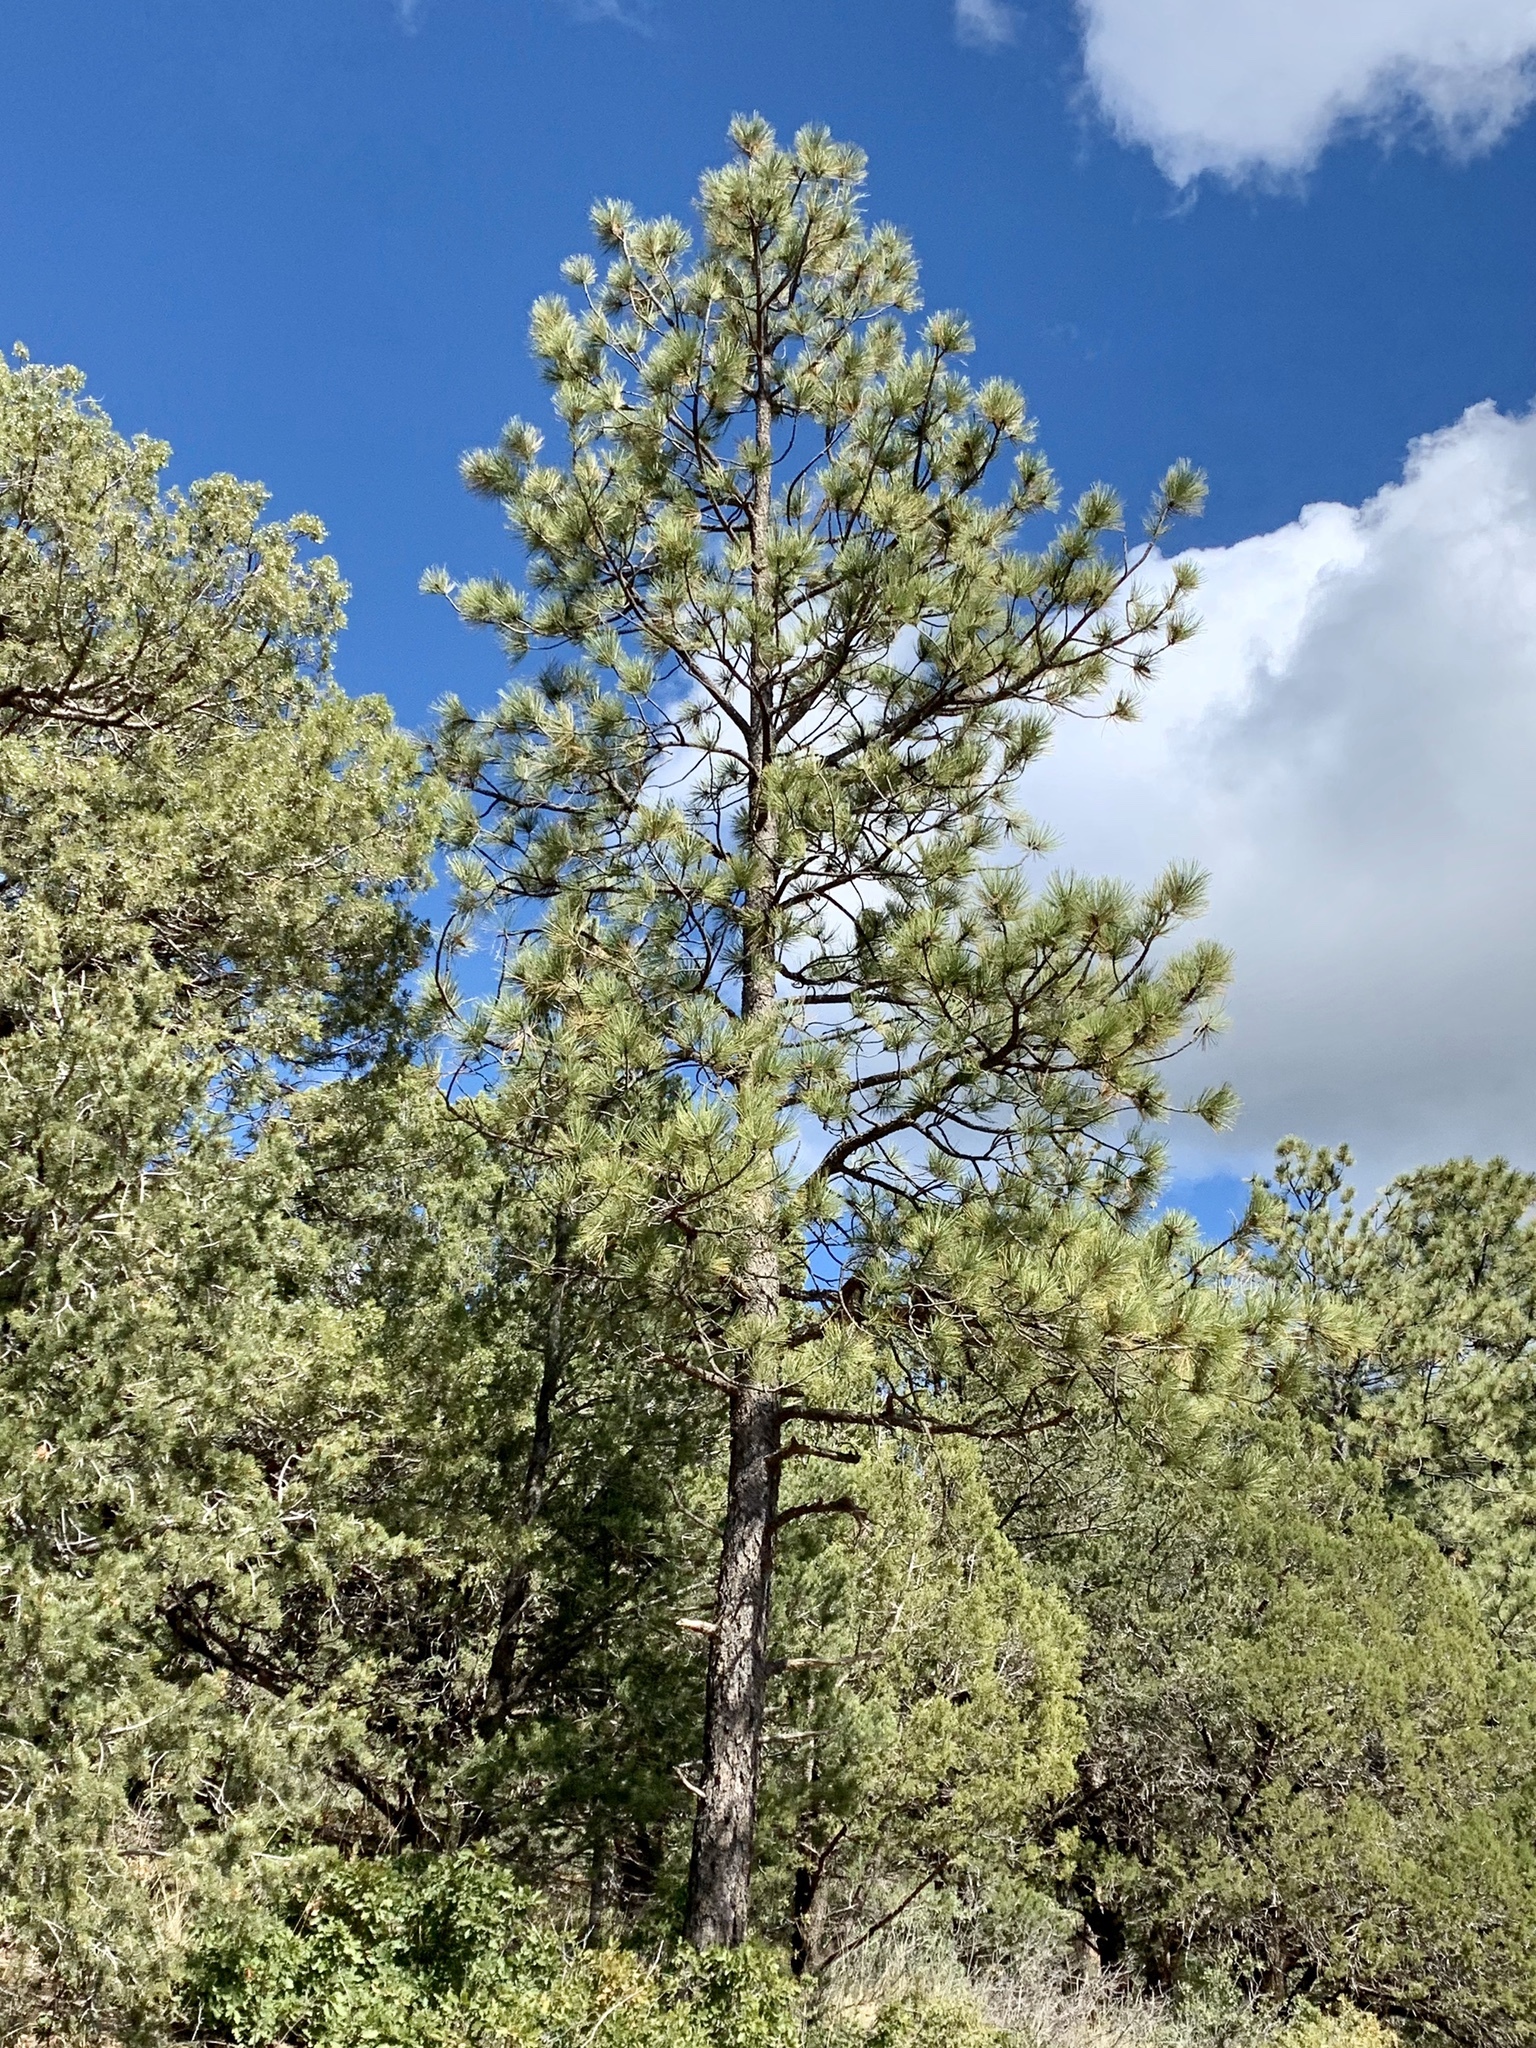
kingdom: Plantae
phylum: Tracheophyta
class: Pinopsida
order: Pinales
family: Pinaceae
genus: Pinus
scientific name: Pinus ponderosa
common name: Western yellow-pine
